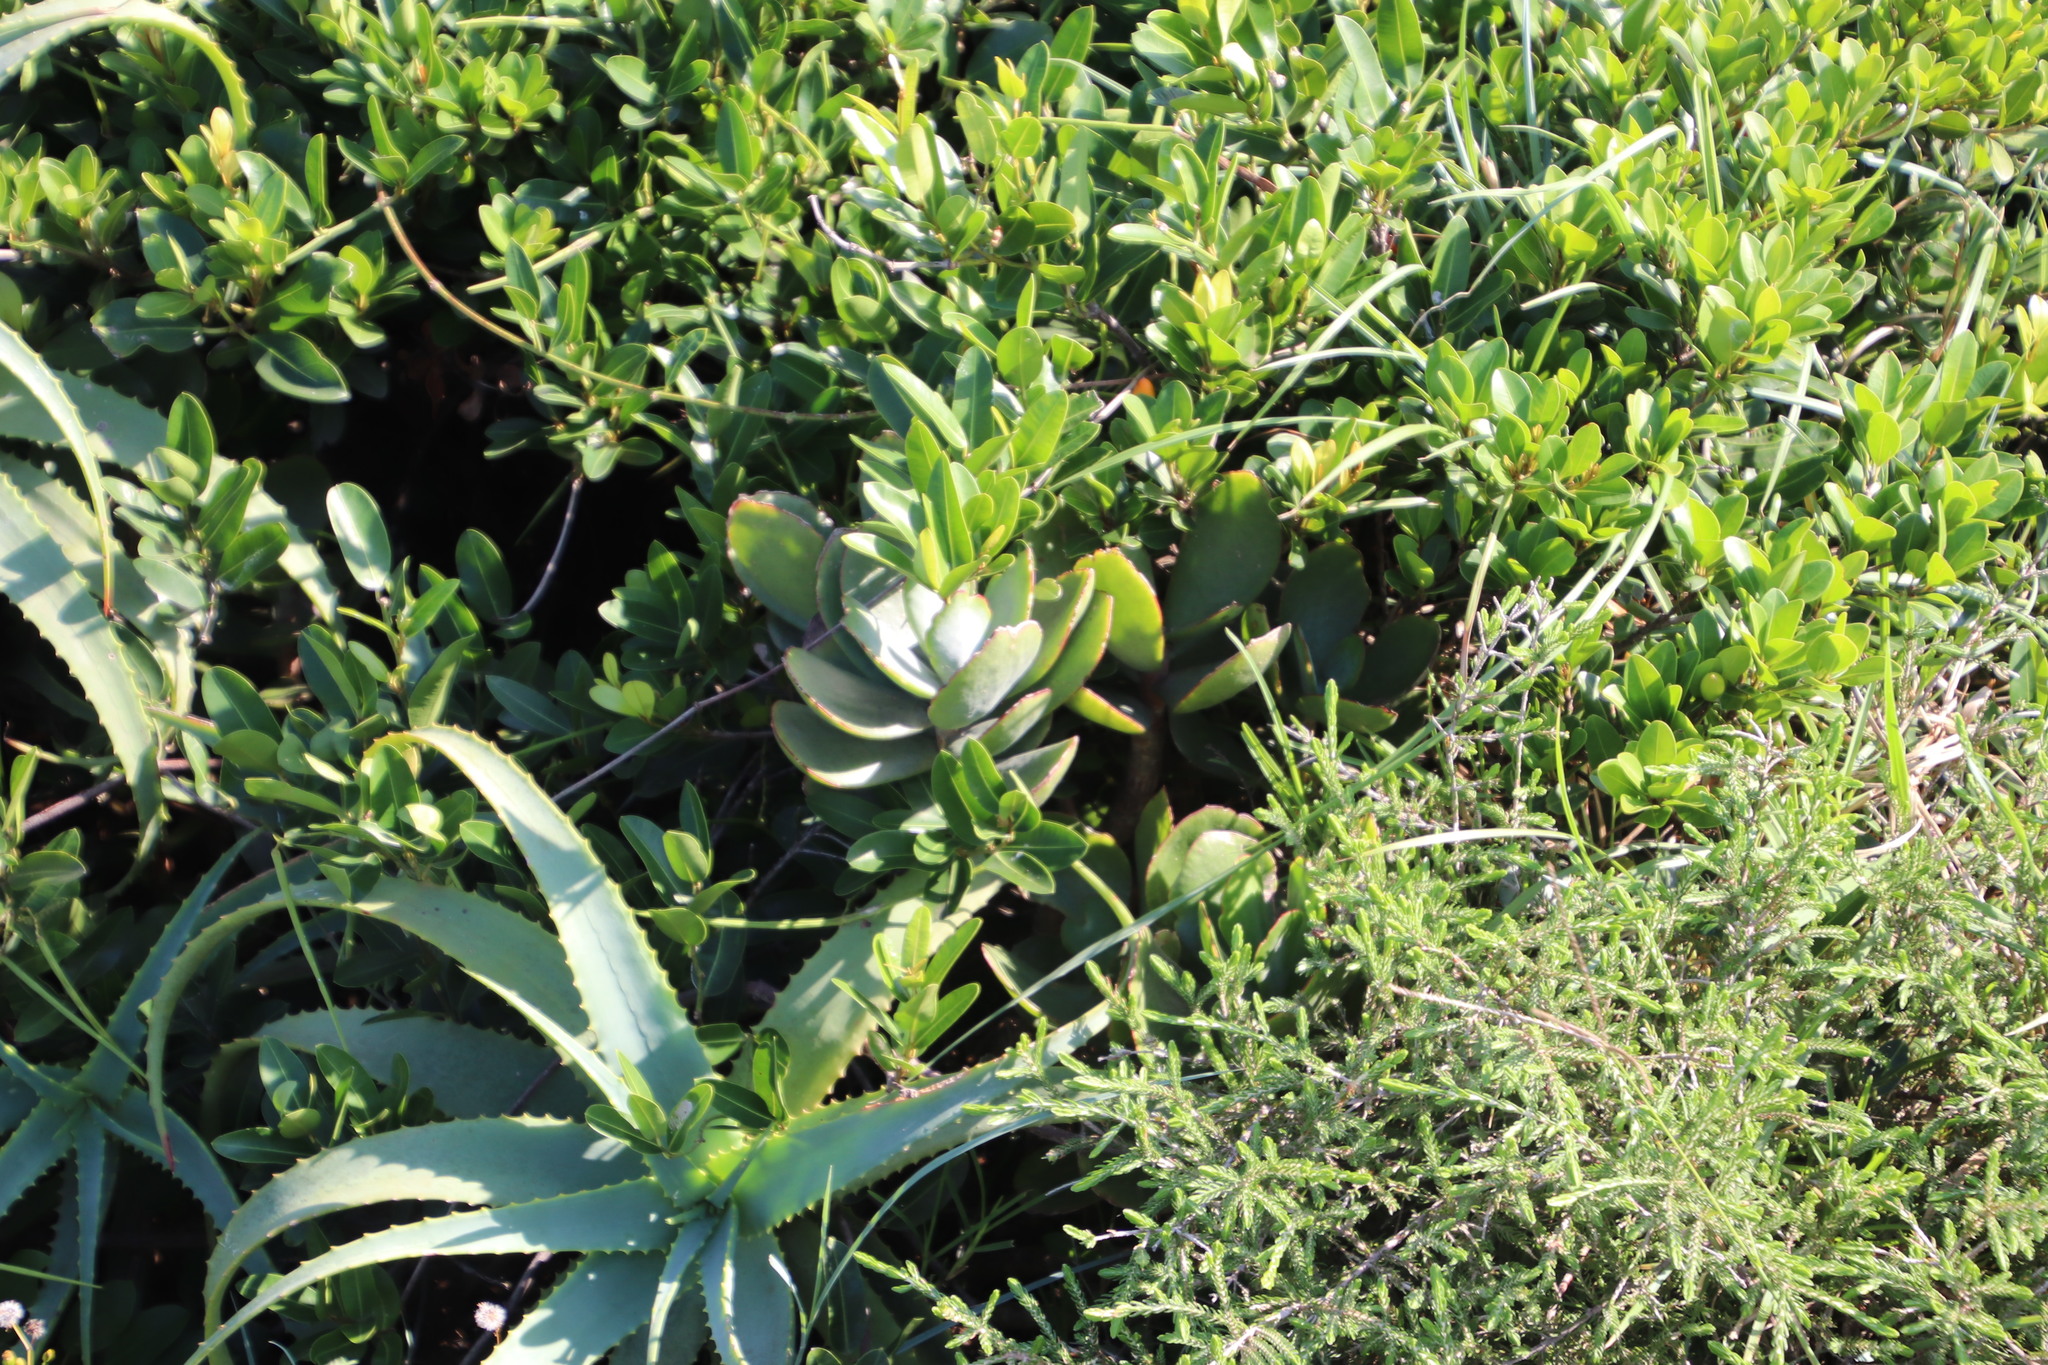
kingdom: Plantae
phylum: Tracheophyta
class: Magnoliopsida
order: Saxifragales
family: Crassulaceae
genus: Cotyledon
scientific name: Cotyledon orbiculata
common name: Pig's ear
